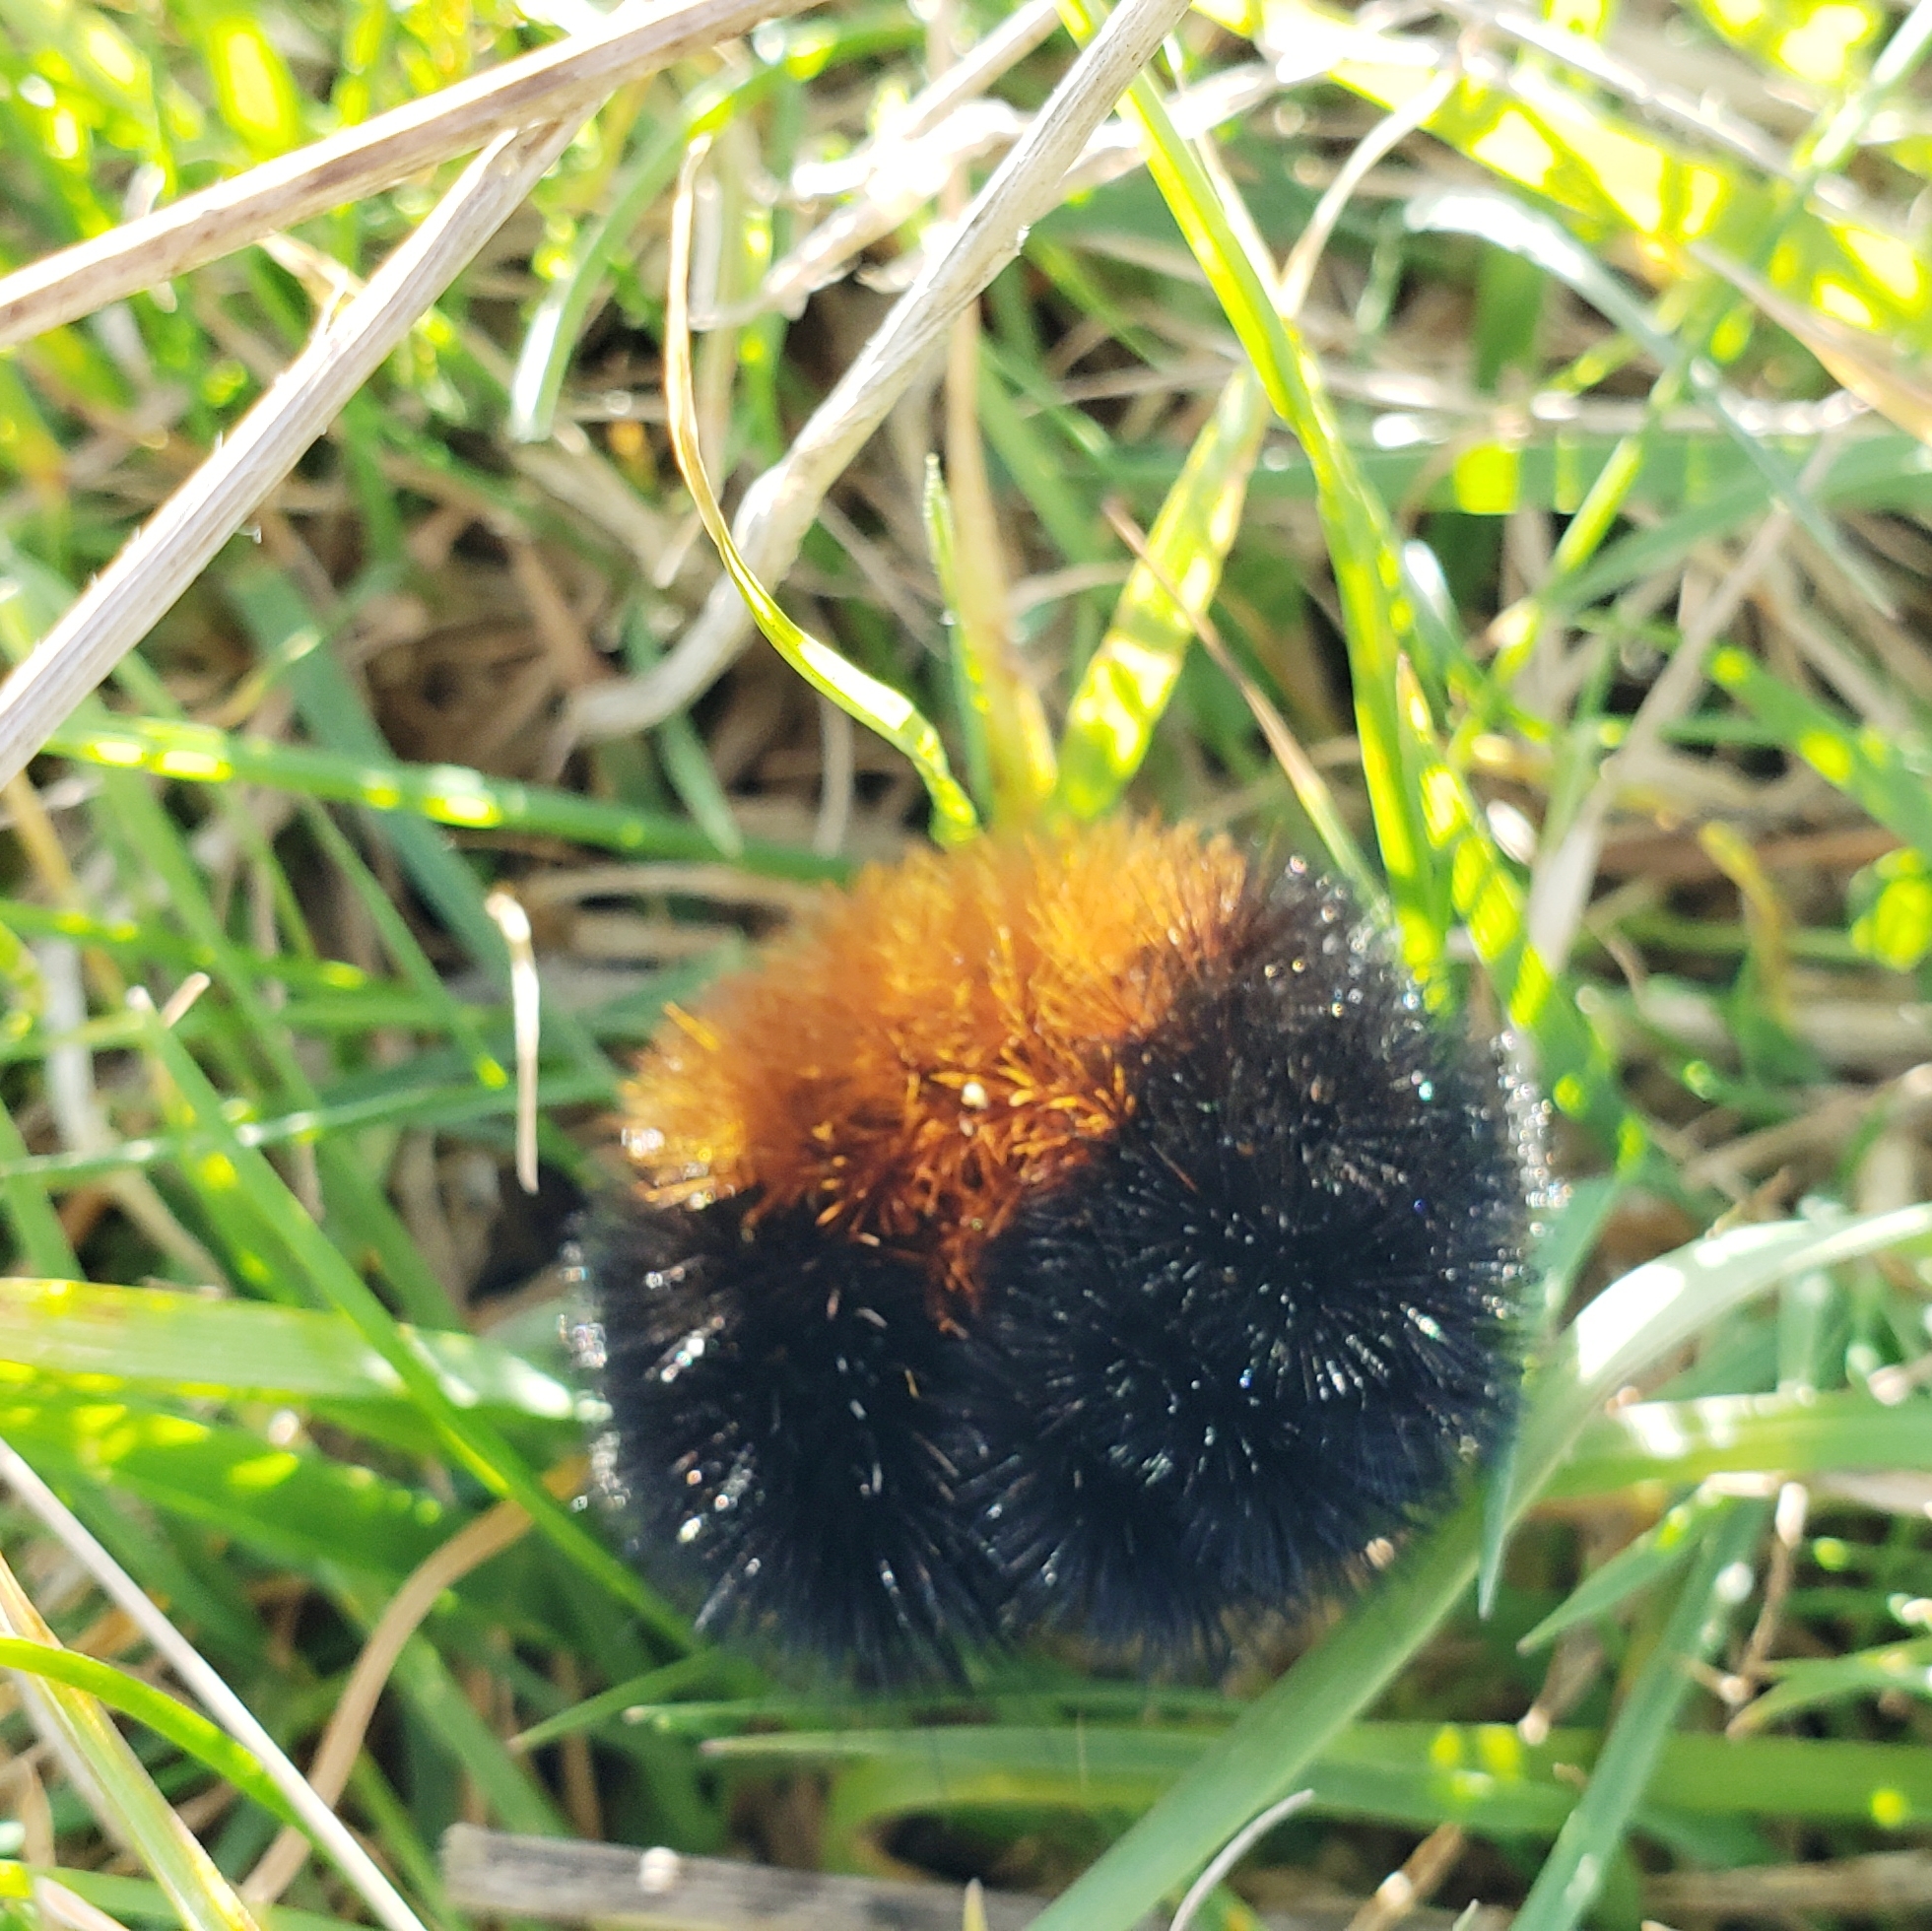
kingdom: Animalia
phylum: Arthropoda
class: Insecta
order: Lepidoptera
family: Erebidae
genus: Pyrrharctia
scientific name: Pyrrharctia isabella
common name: Isabella tiger moth
